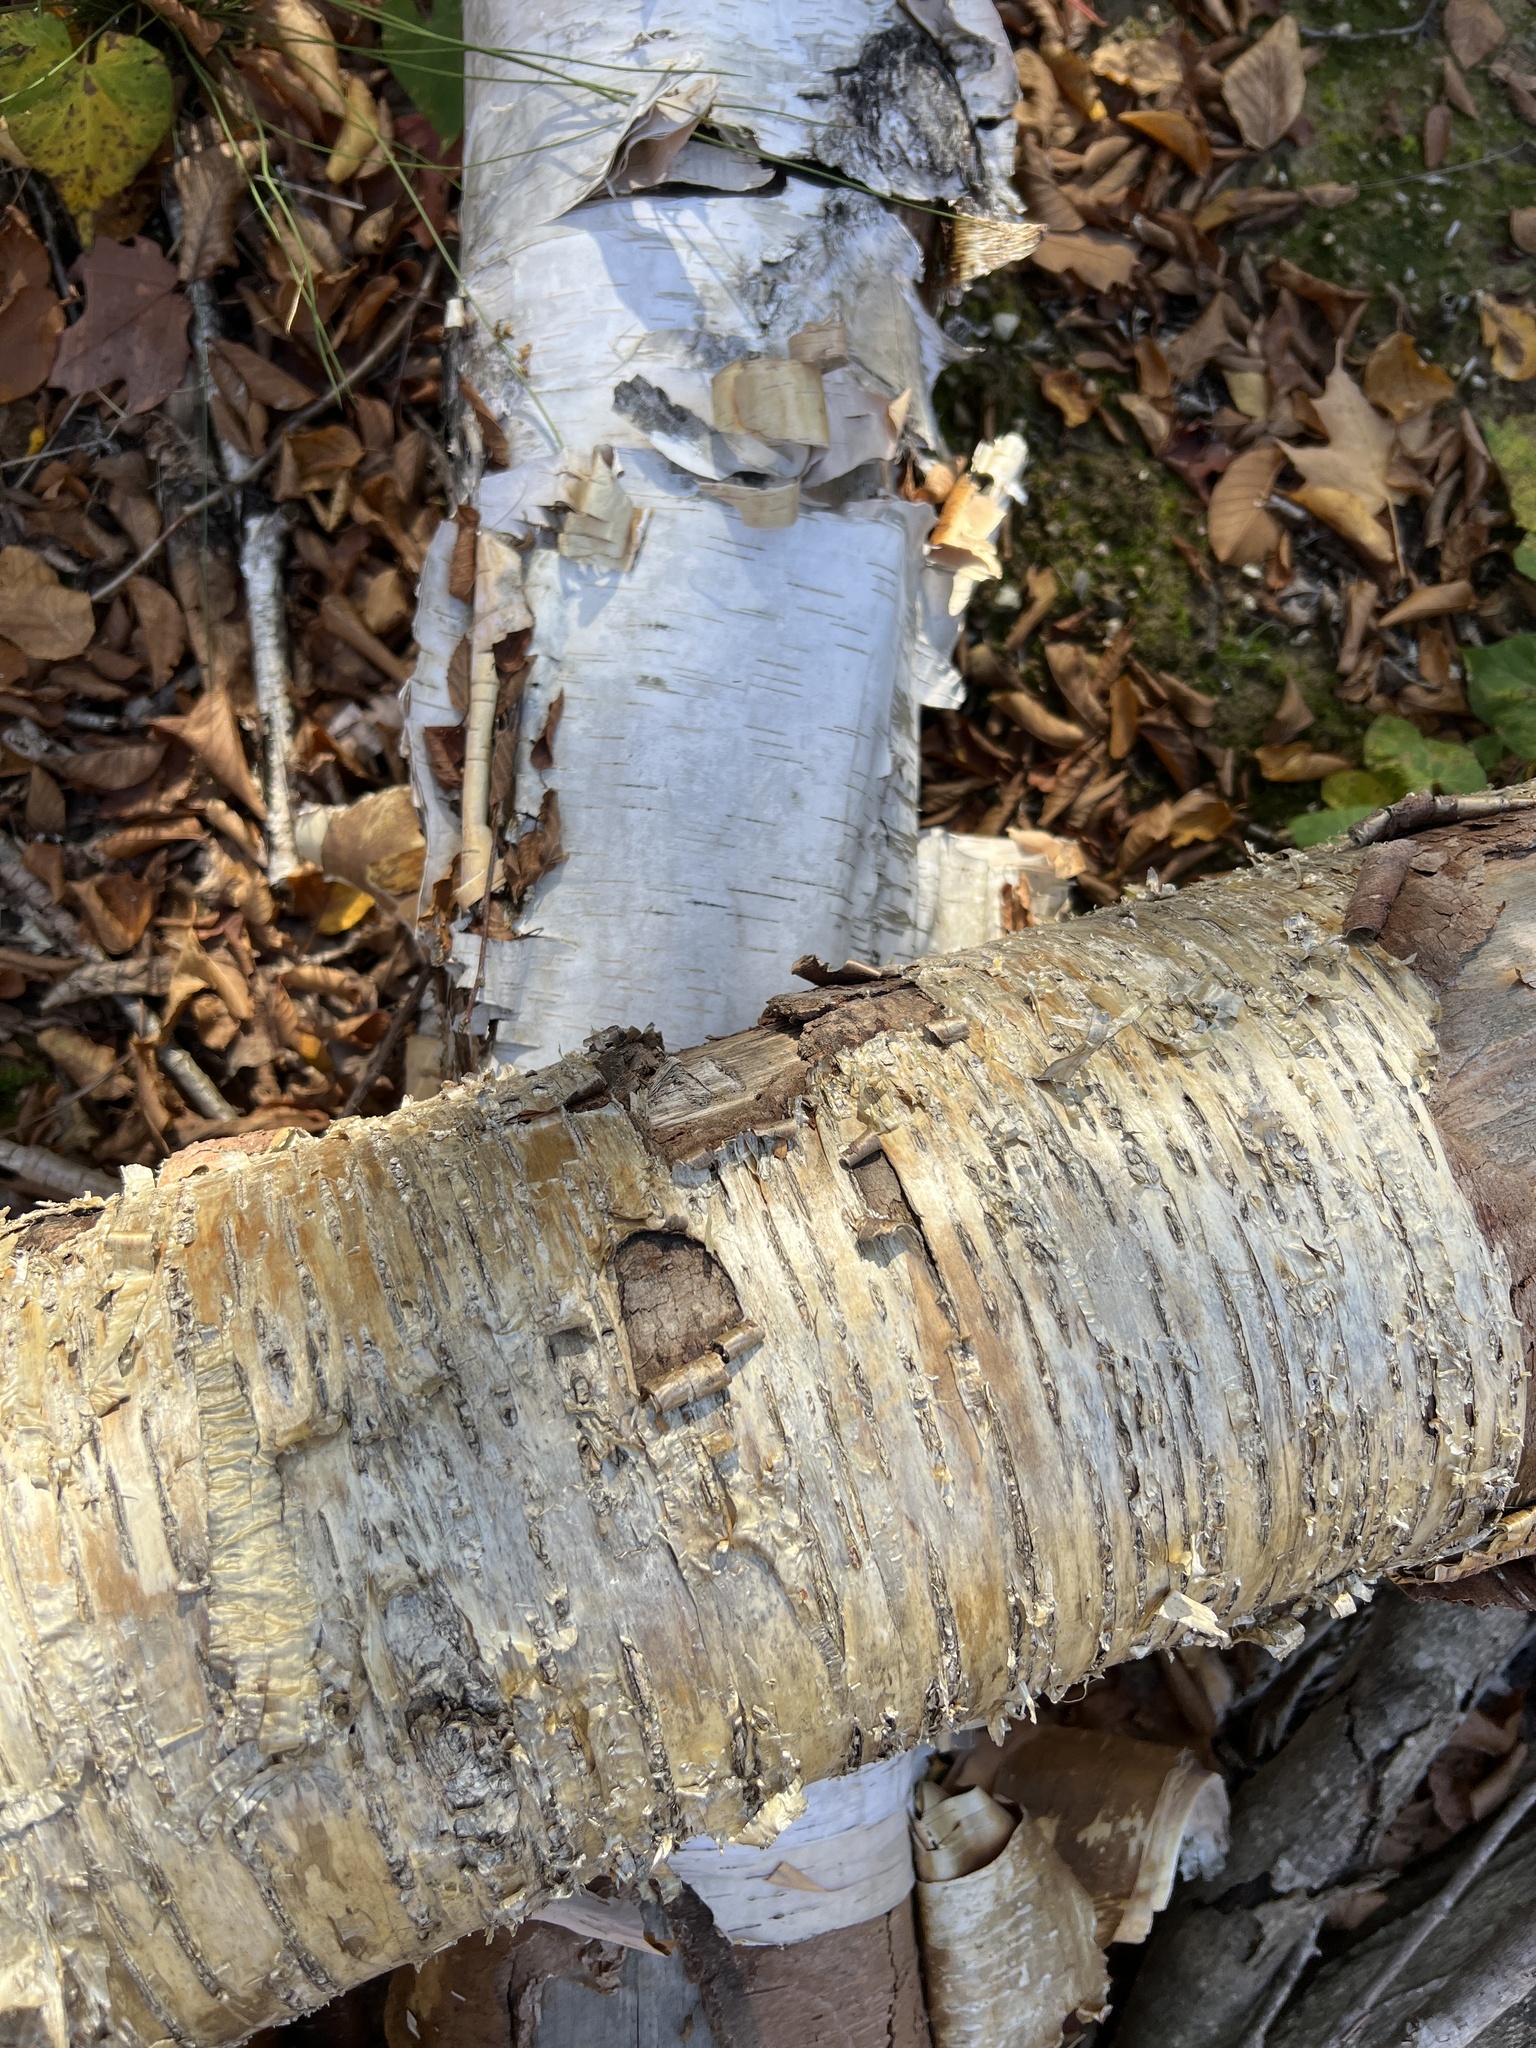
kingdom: Plantae
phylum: Tracheophyta
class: Magnoliopsida
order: Fagales
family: Betulaceae
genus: Betula
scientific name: Betula alleghaniensis
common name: Yellow birch
